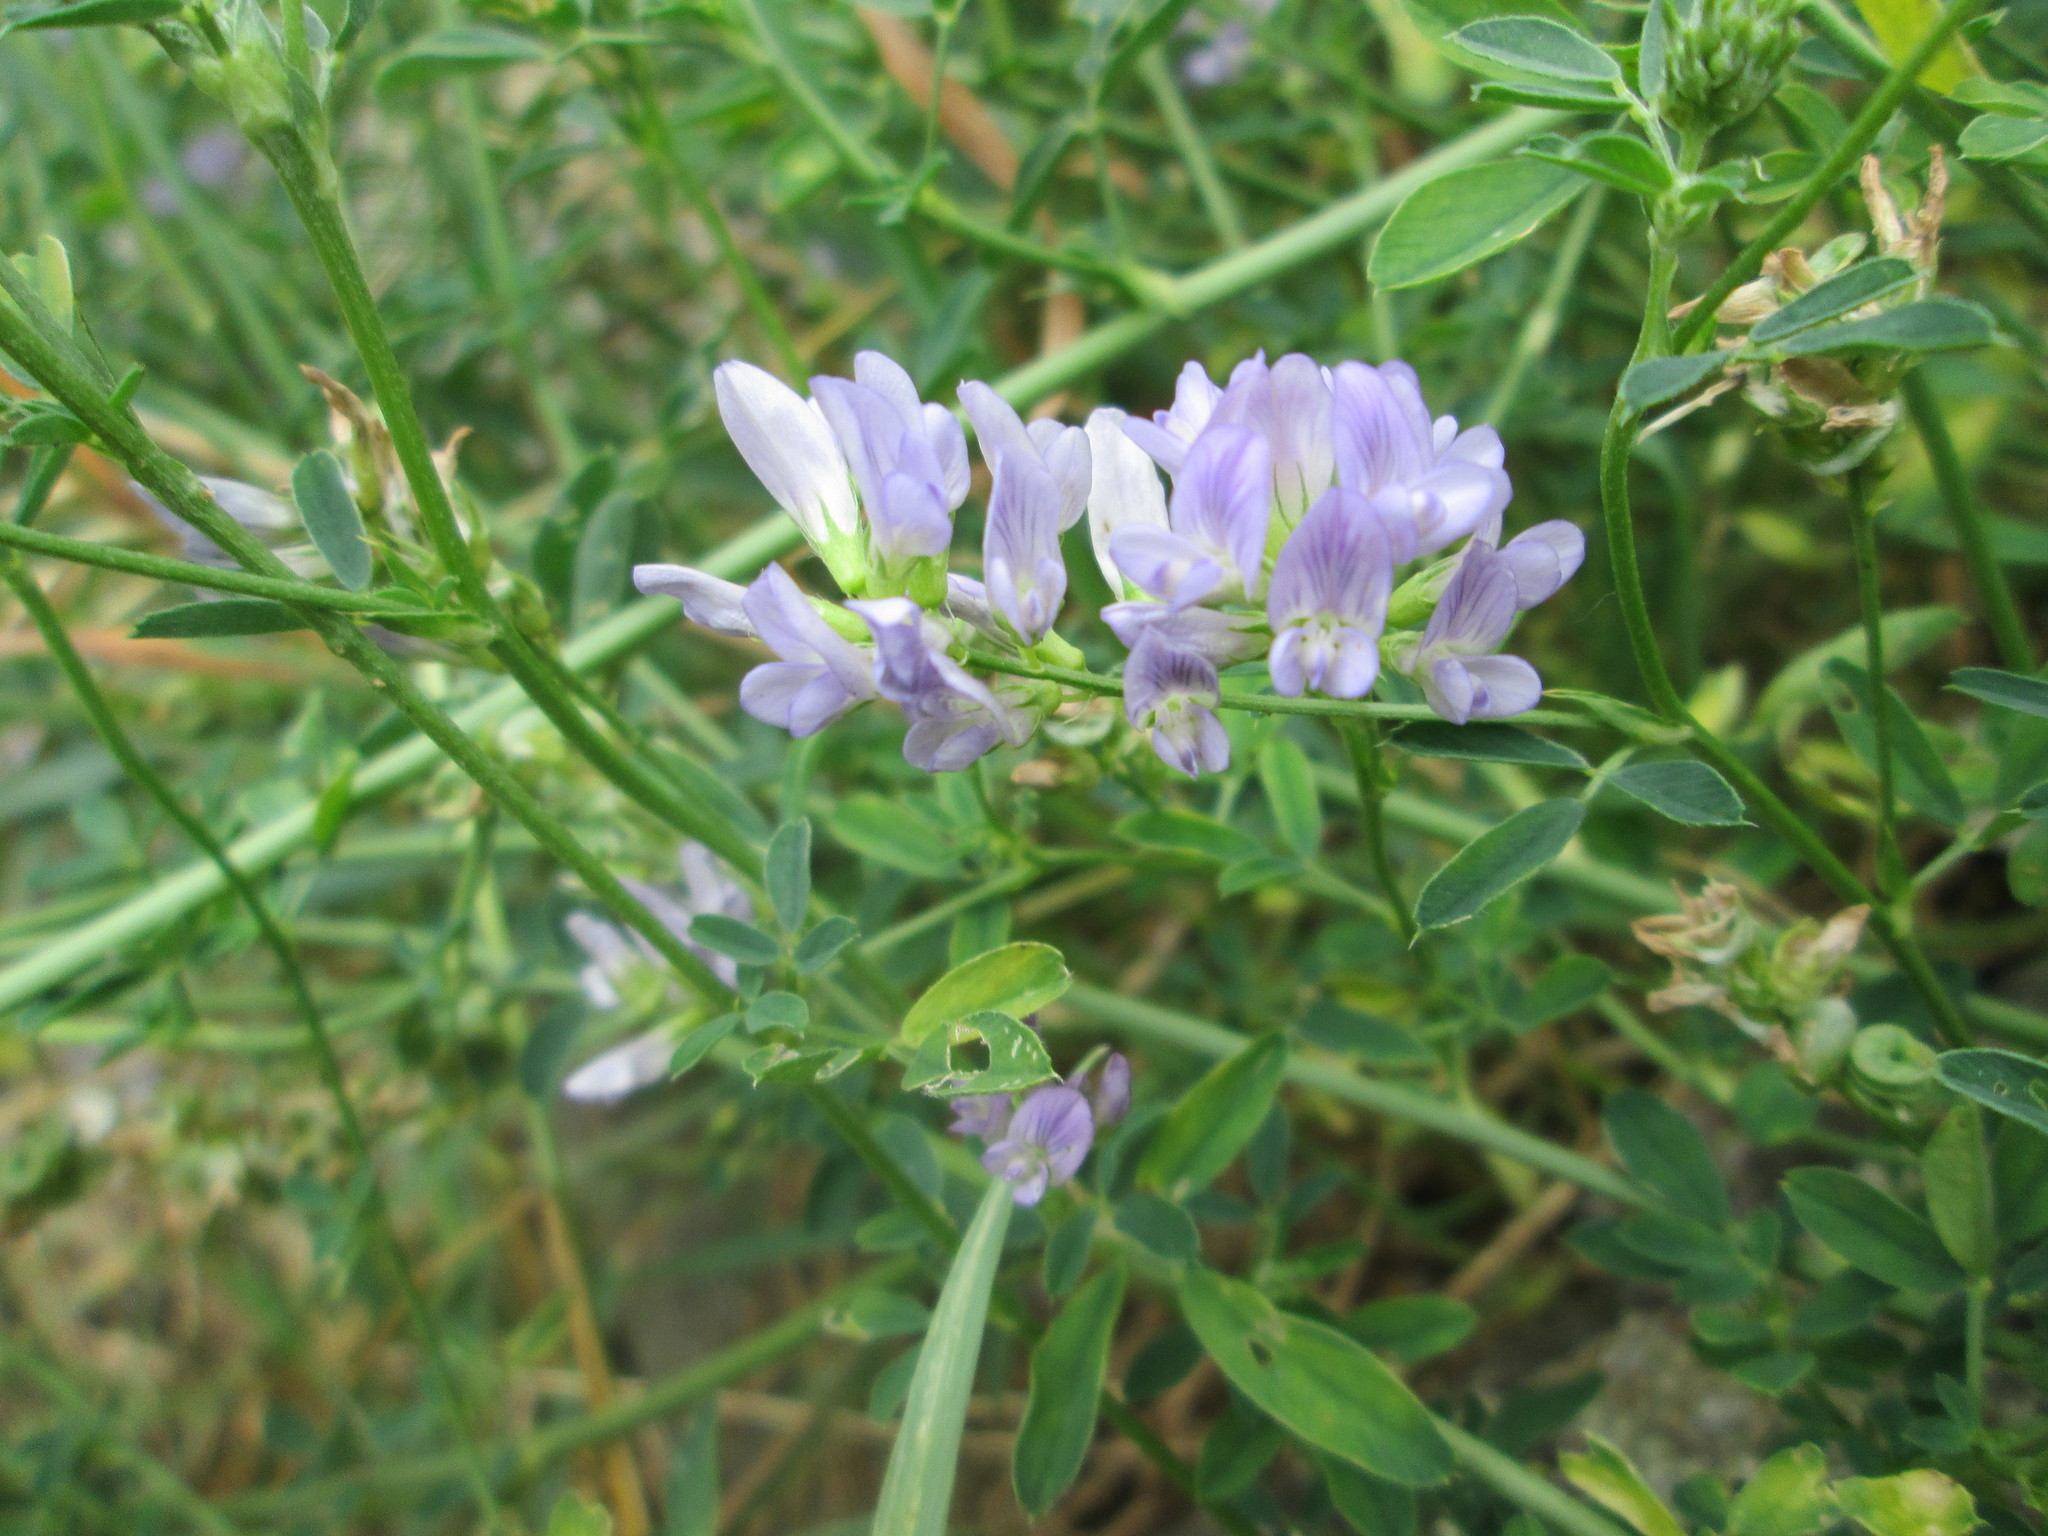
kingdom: Plantae
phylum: Tracheophyta
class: Magnoliopsida
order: Fabales
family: Fabaceae
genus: Medicago
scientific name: Medicago sativa
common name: Alfalfa
